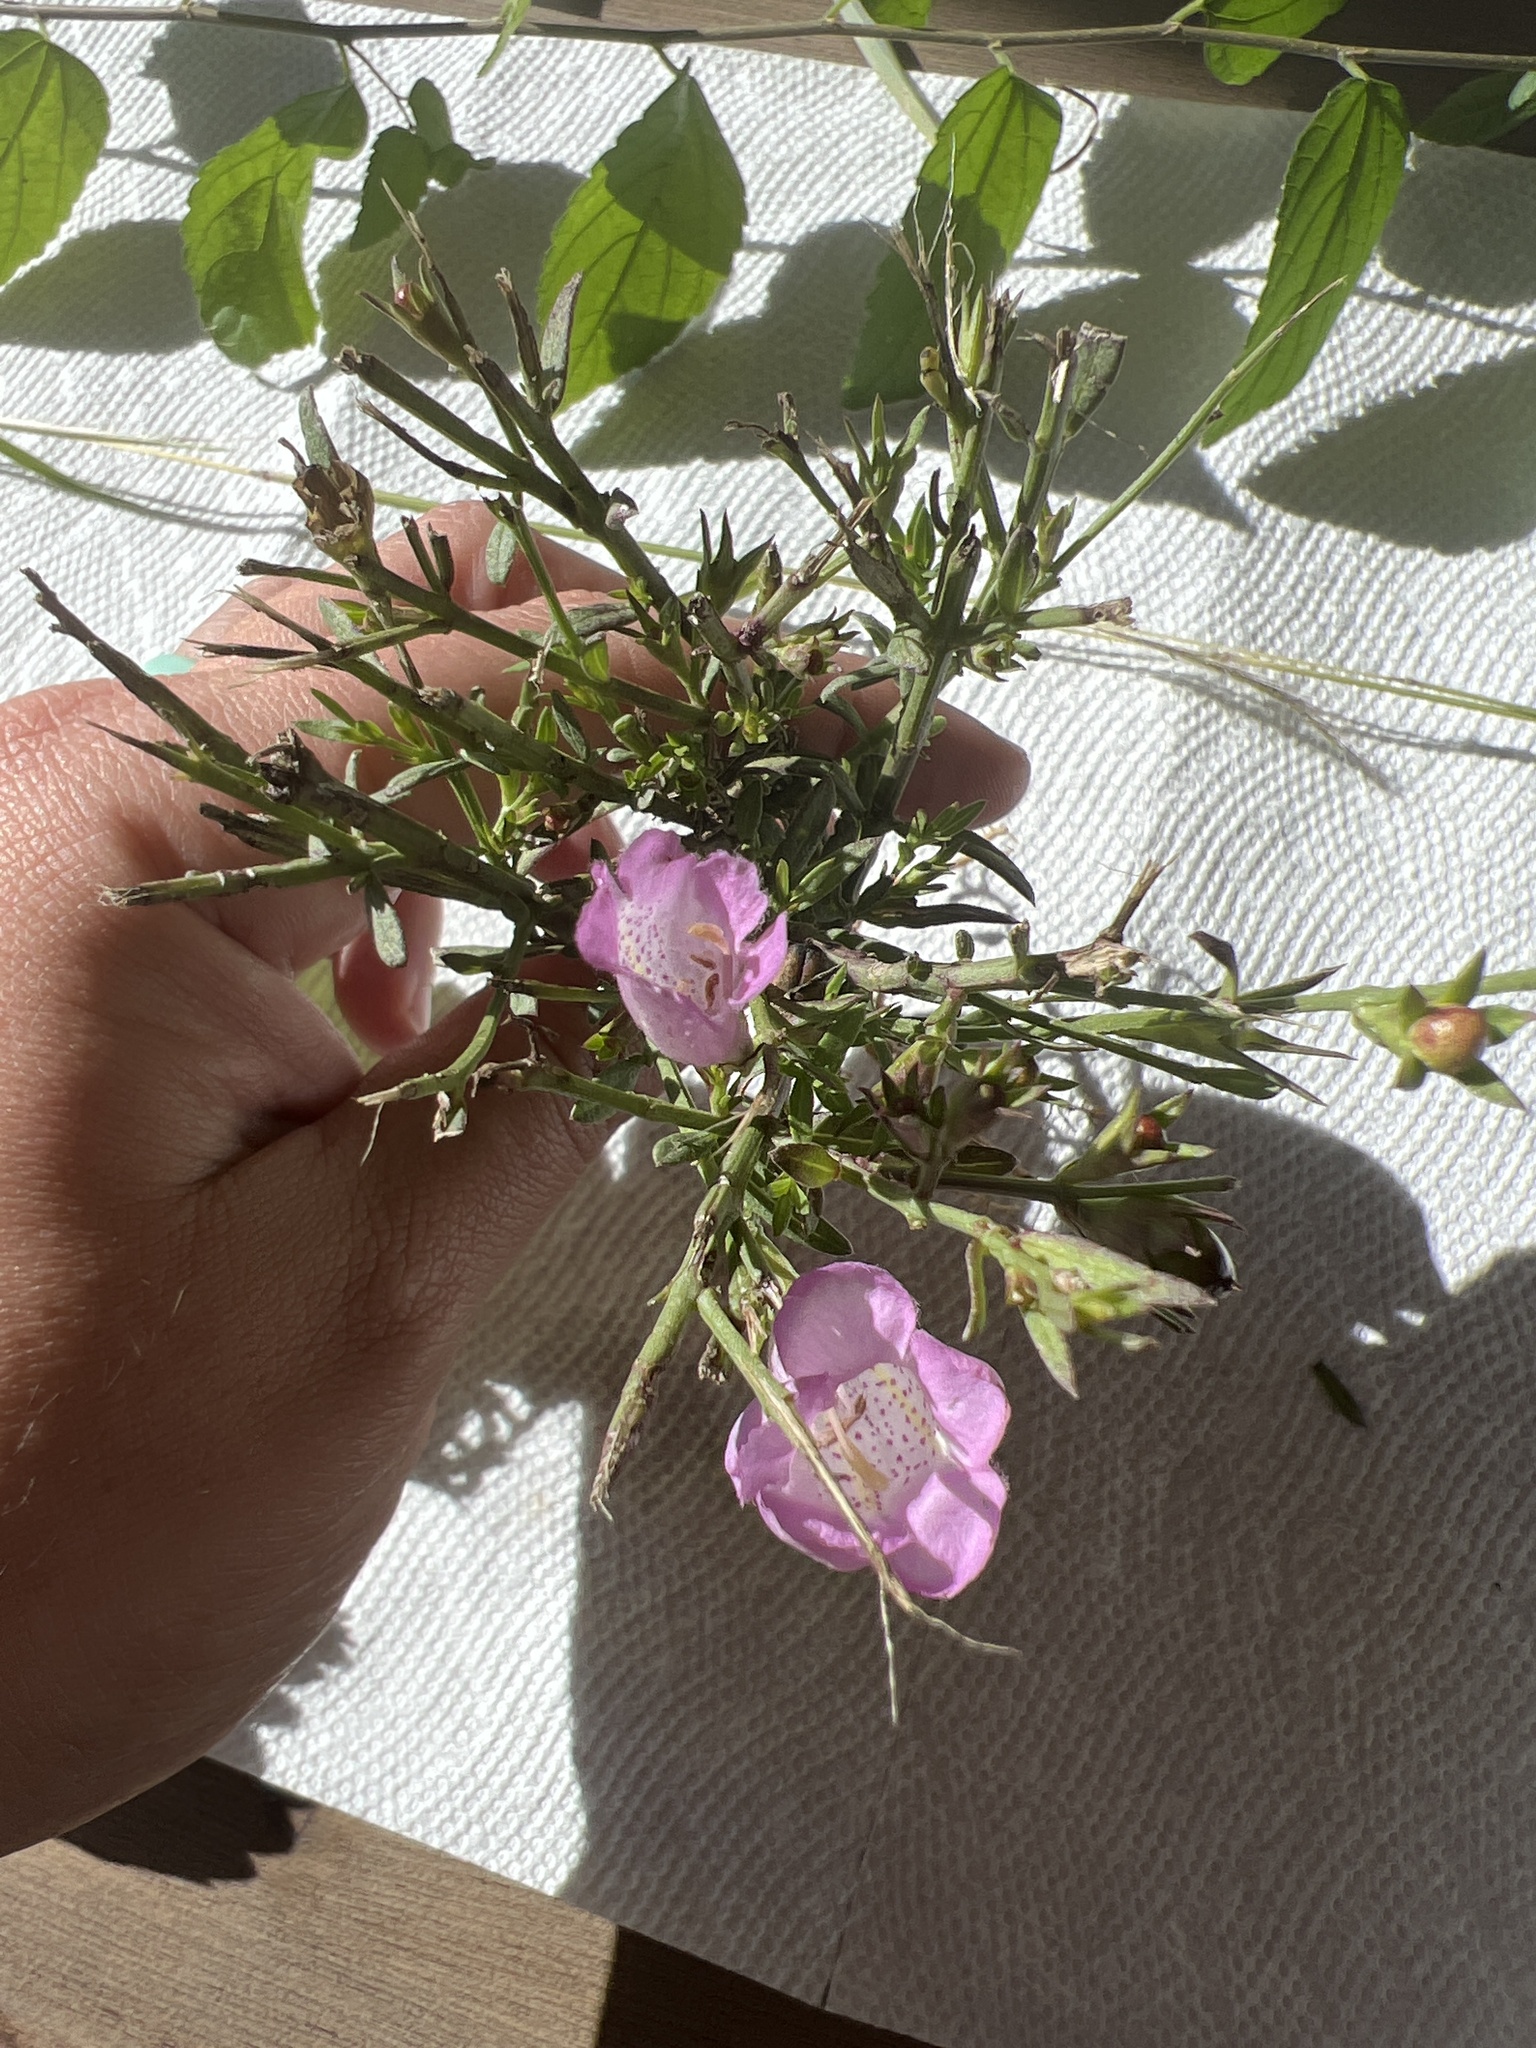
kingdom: Plantae
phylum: Tracheophyta
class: Magnoliopsida
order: Lamiales
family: Orobanchaceae
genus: Agalinis
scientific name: Agalinis heterophylla
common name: Prairie agalinis
